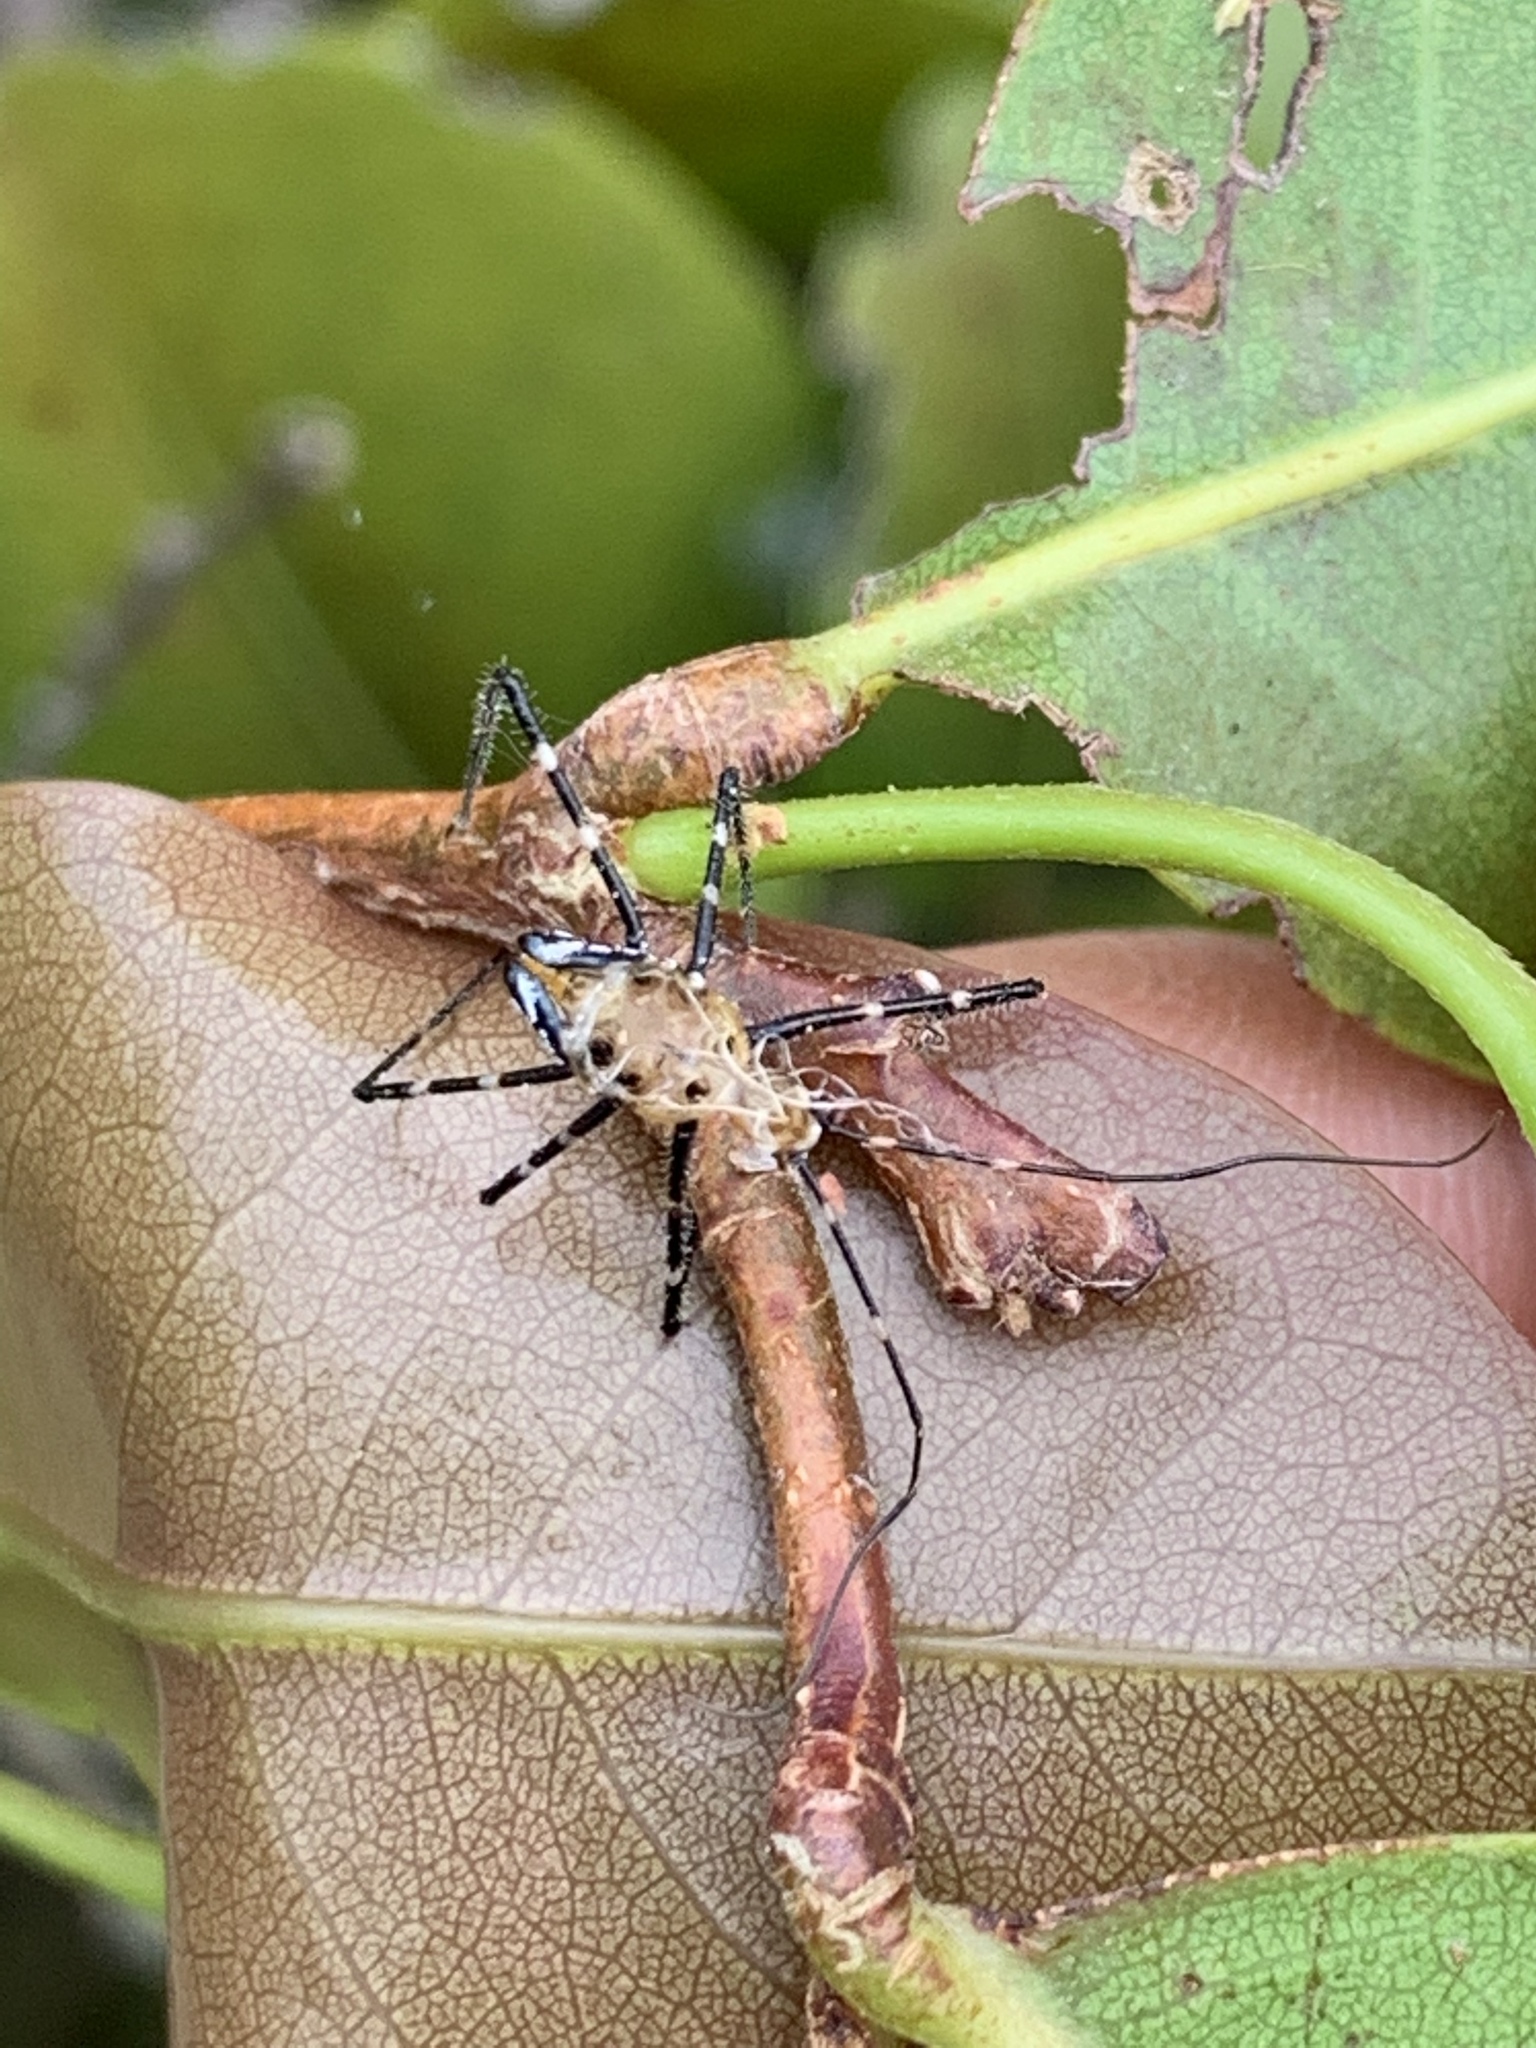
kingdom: Animalia
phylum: Arthropoda
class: Insecta
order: Hemiptera
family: Reduviidae
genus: Zelus
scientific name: Zelus longipes
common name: Milkweed assassin bug
